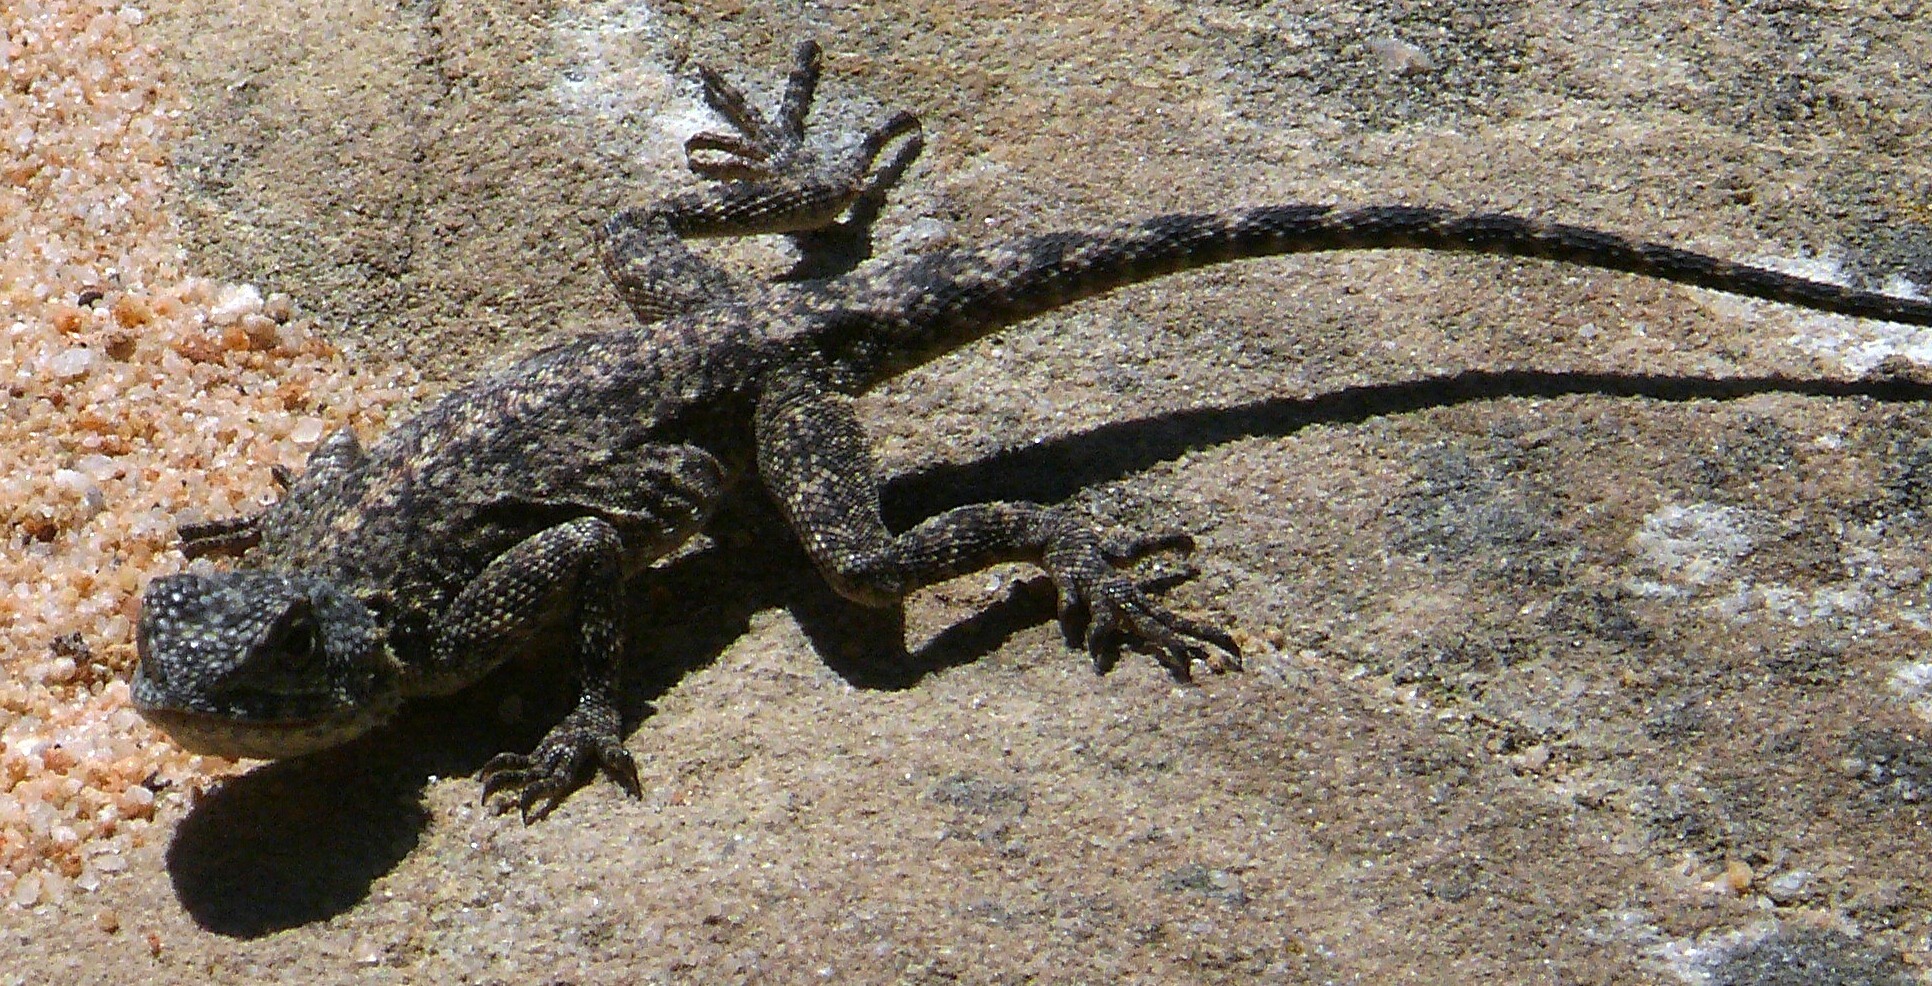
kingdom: Animalia
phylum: Chordata
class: Squamata
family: Agamidae
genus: Agama
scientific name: Agama atra
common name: Southern african rock agama
